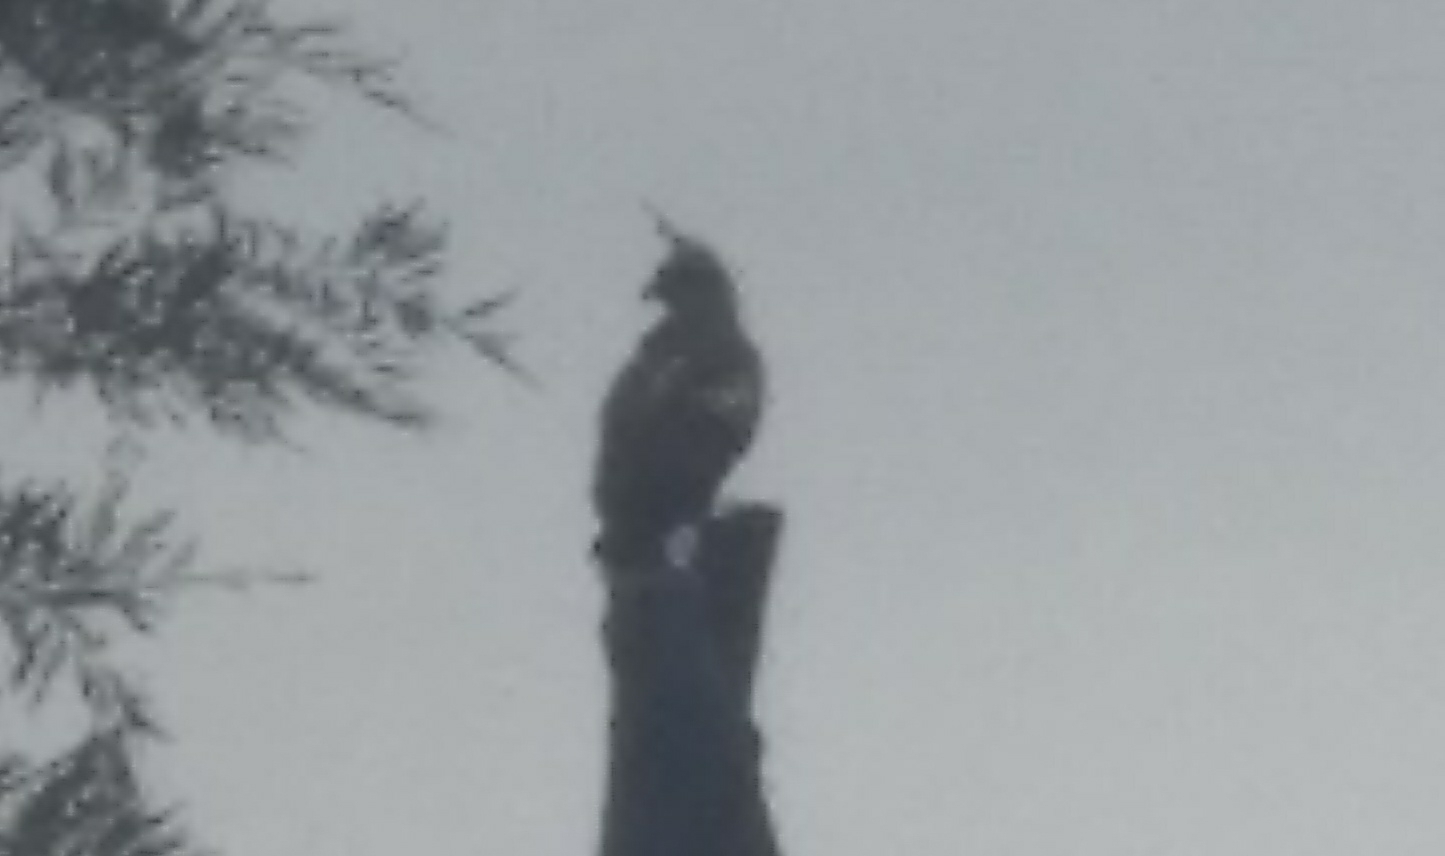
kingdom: Animalia
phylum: Chordata
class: Aves
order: Accipitriformes
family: Accipitridae
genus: Nisaetus
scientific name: Nisaetus cirrhatus
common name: Changeable hawk-eagle
